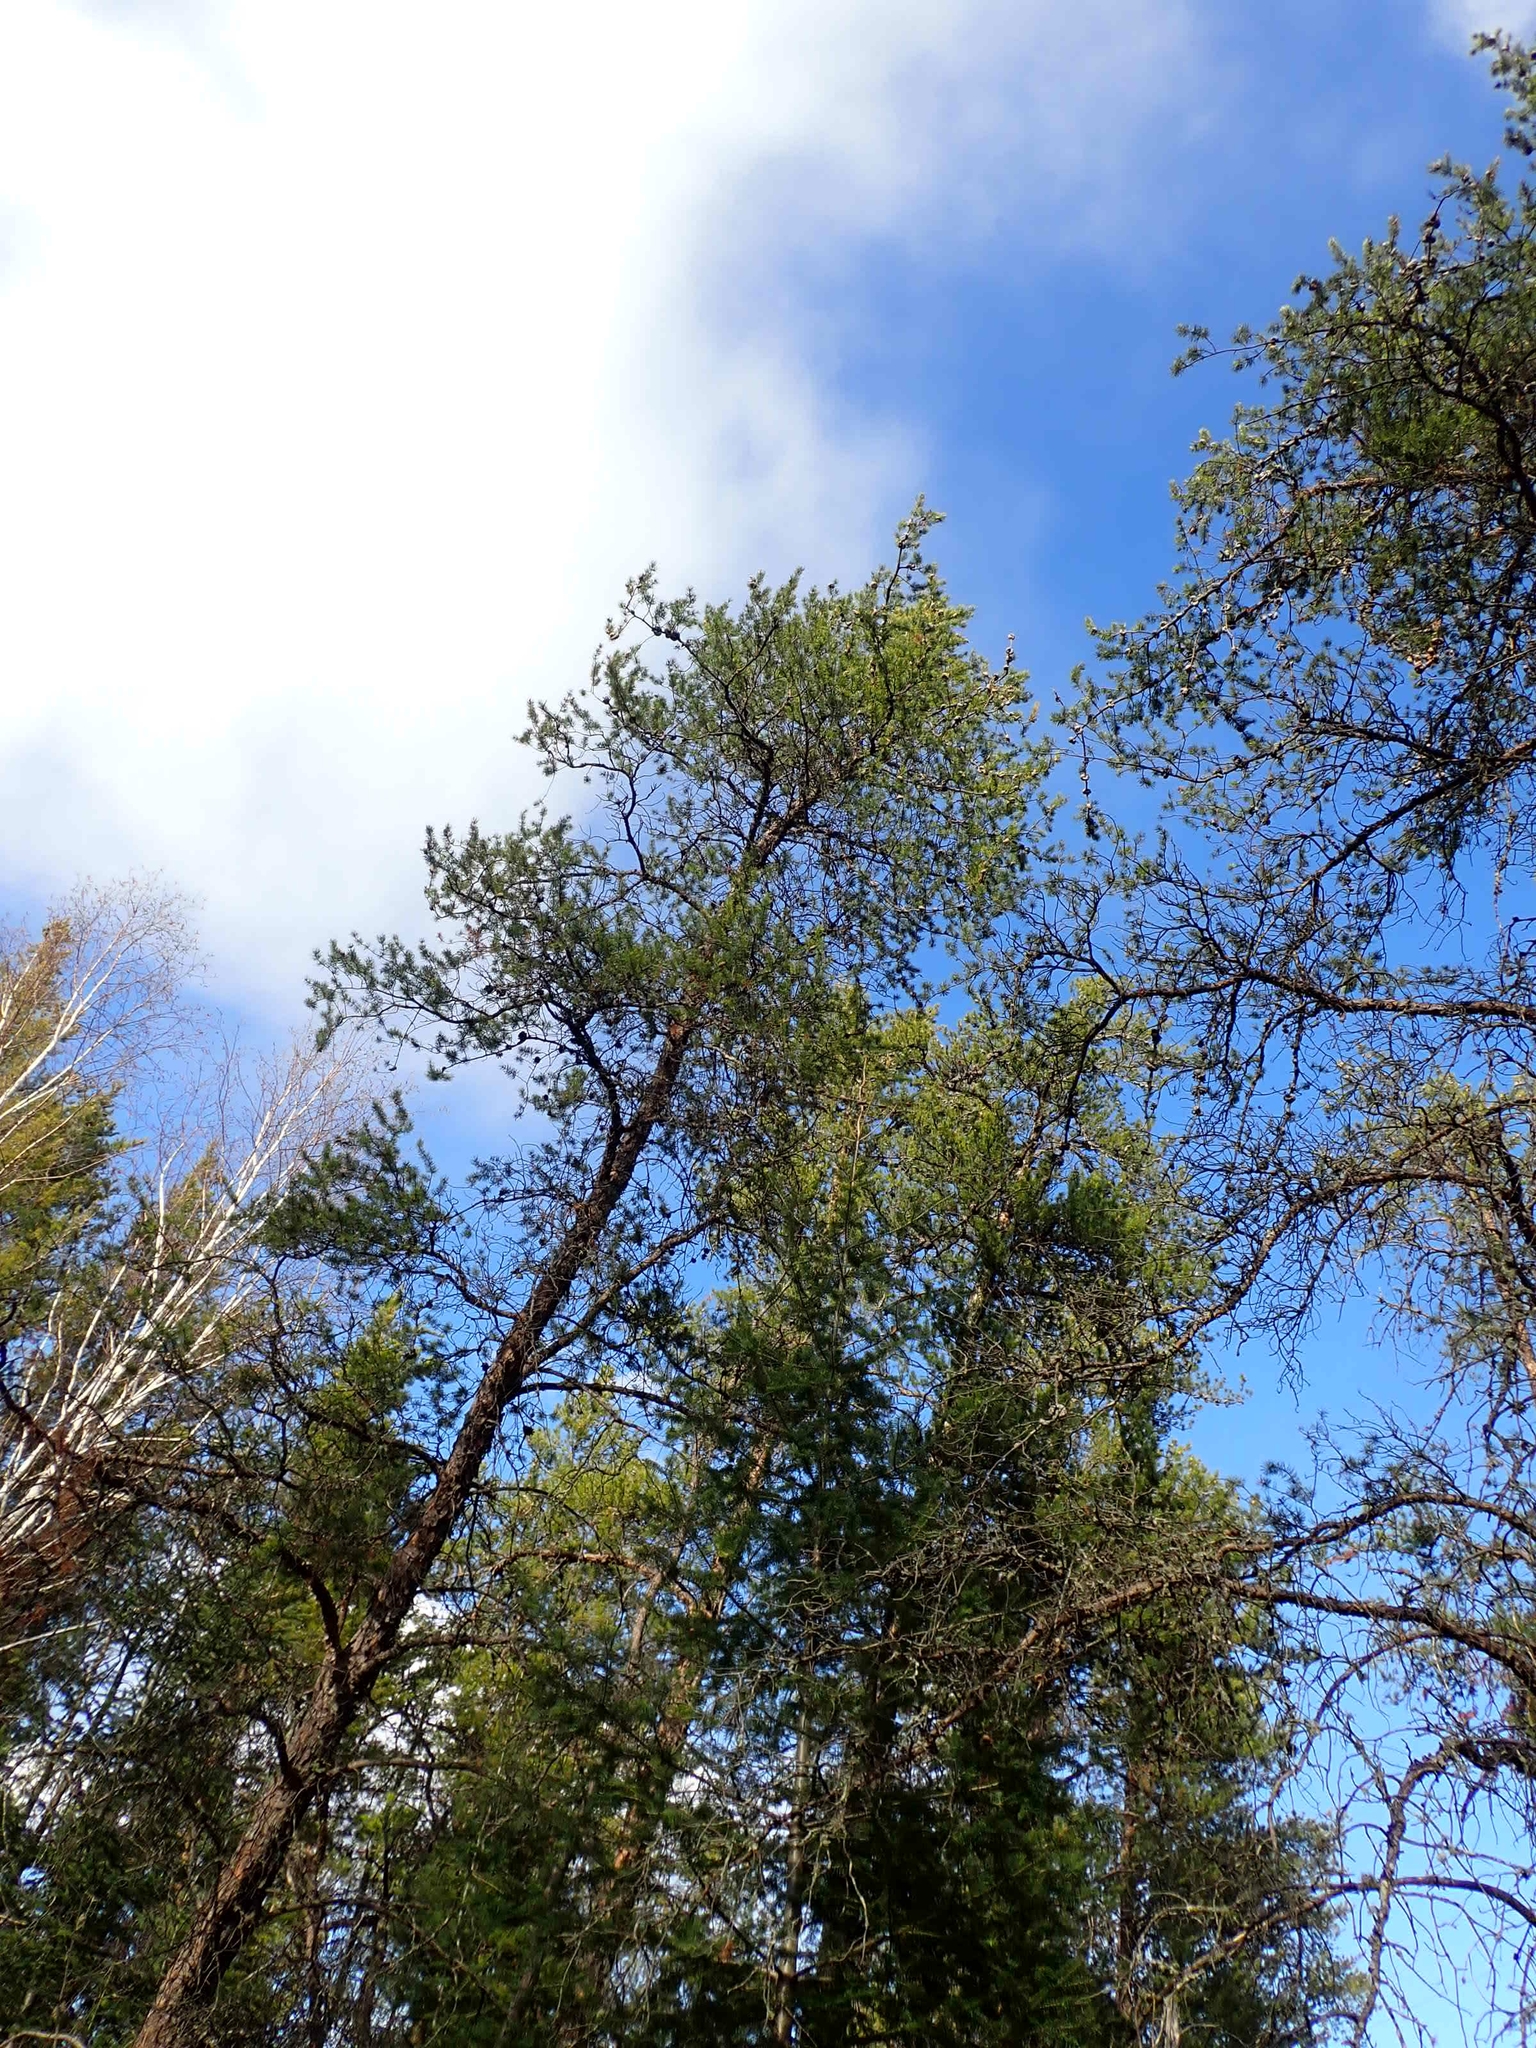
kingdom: Plantae
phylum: Tracheophyta
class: Pinopsida
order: Pinales
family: Pinaceae
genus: Pinus
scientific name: Pinus banksiana
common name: Jack pine
